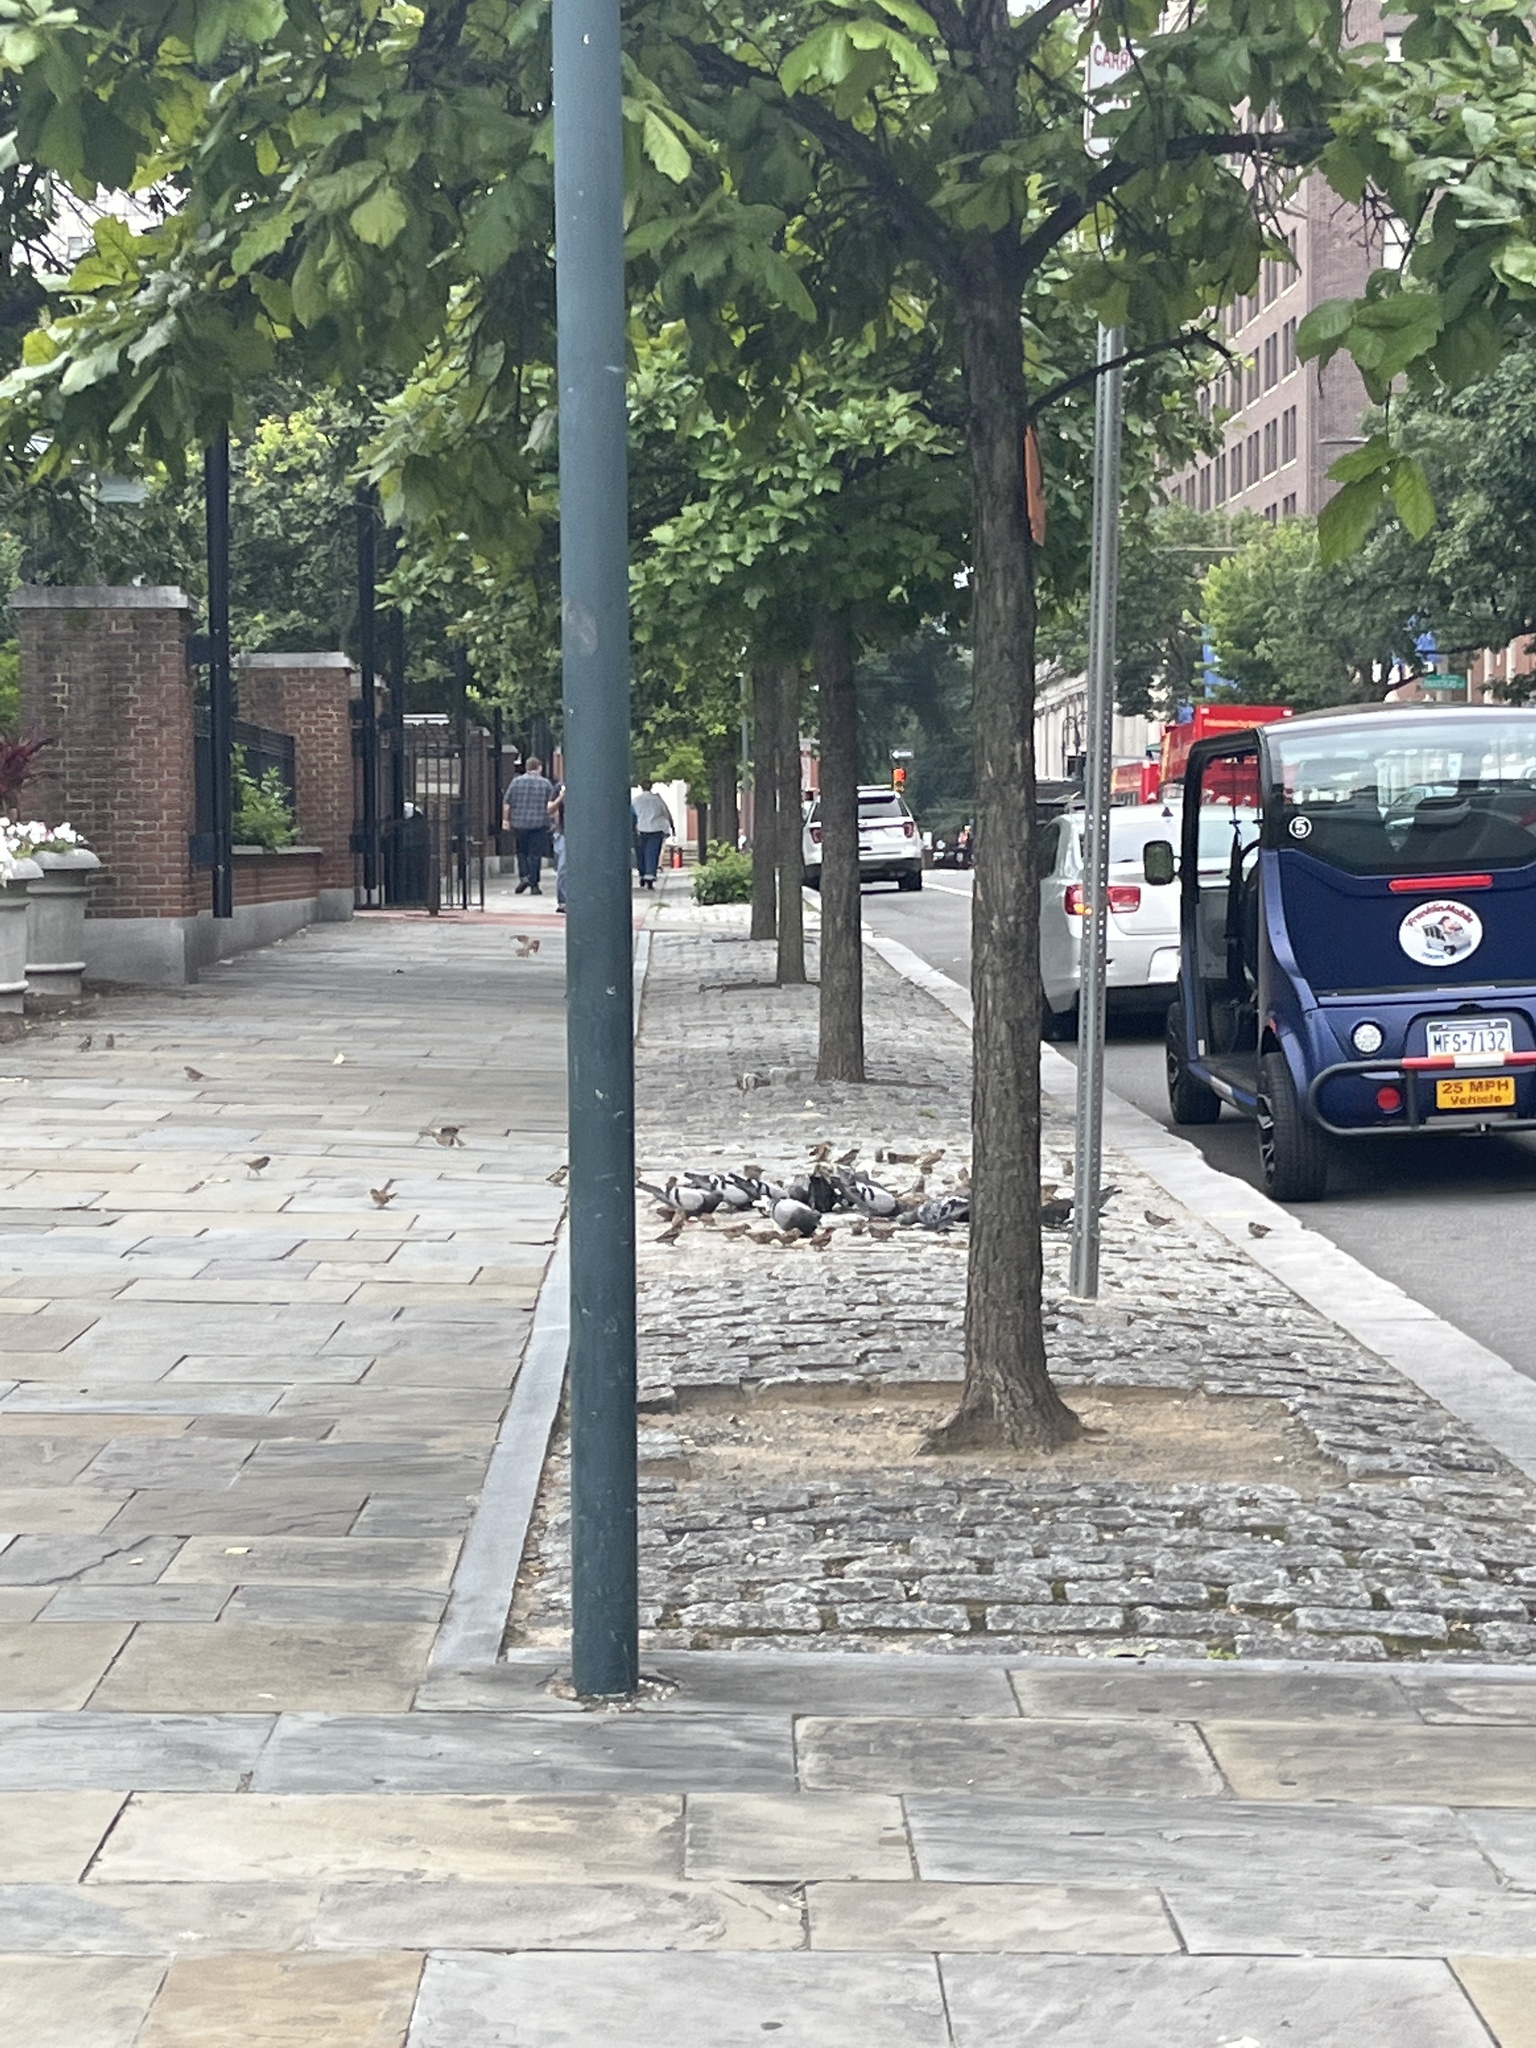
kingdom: Animalia
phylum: Chordata
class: Aves
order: Columbiformes
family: Columbidae
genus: Columba
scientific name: Columba livia
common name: Rock pigeon
